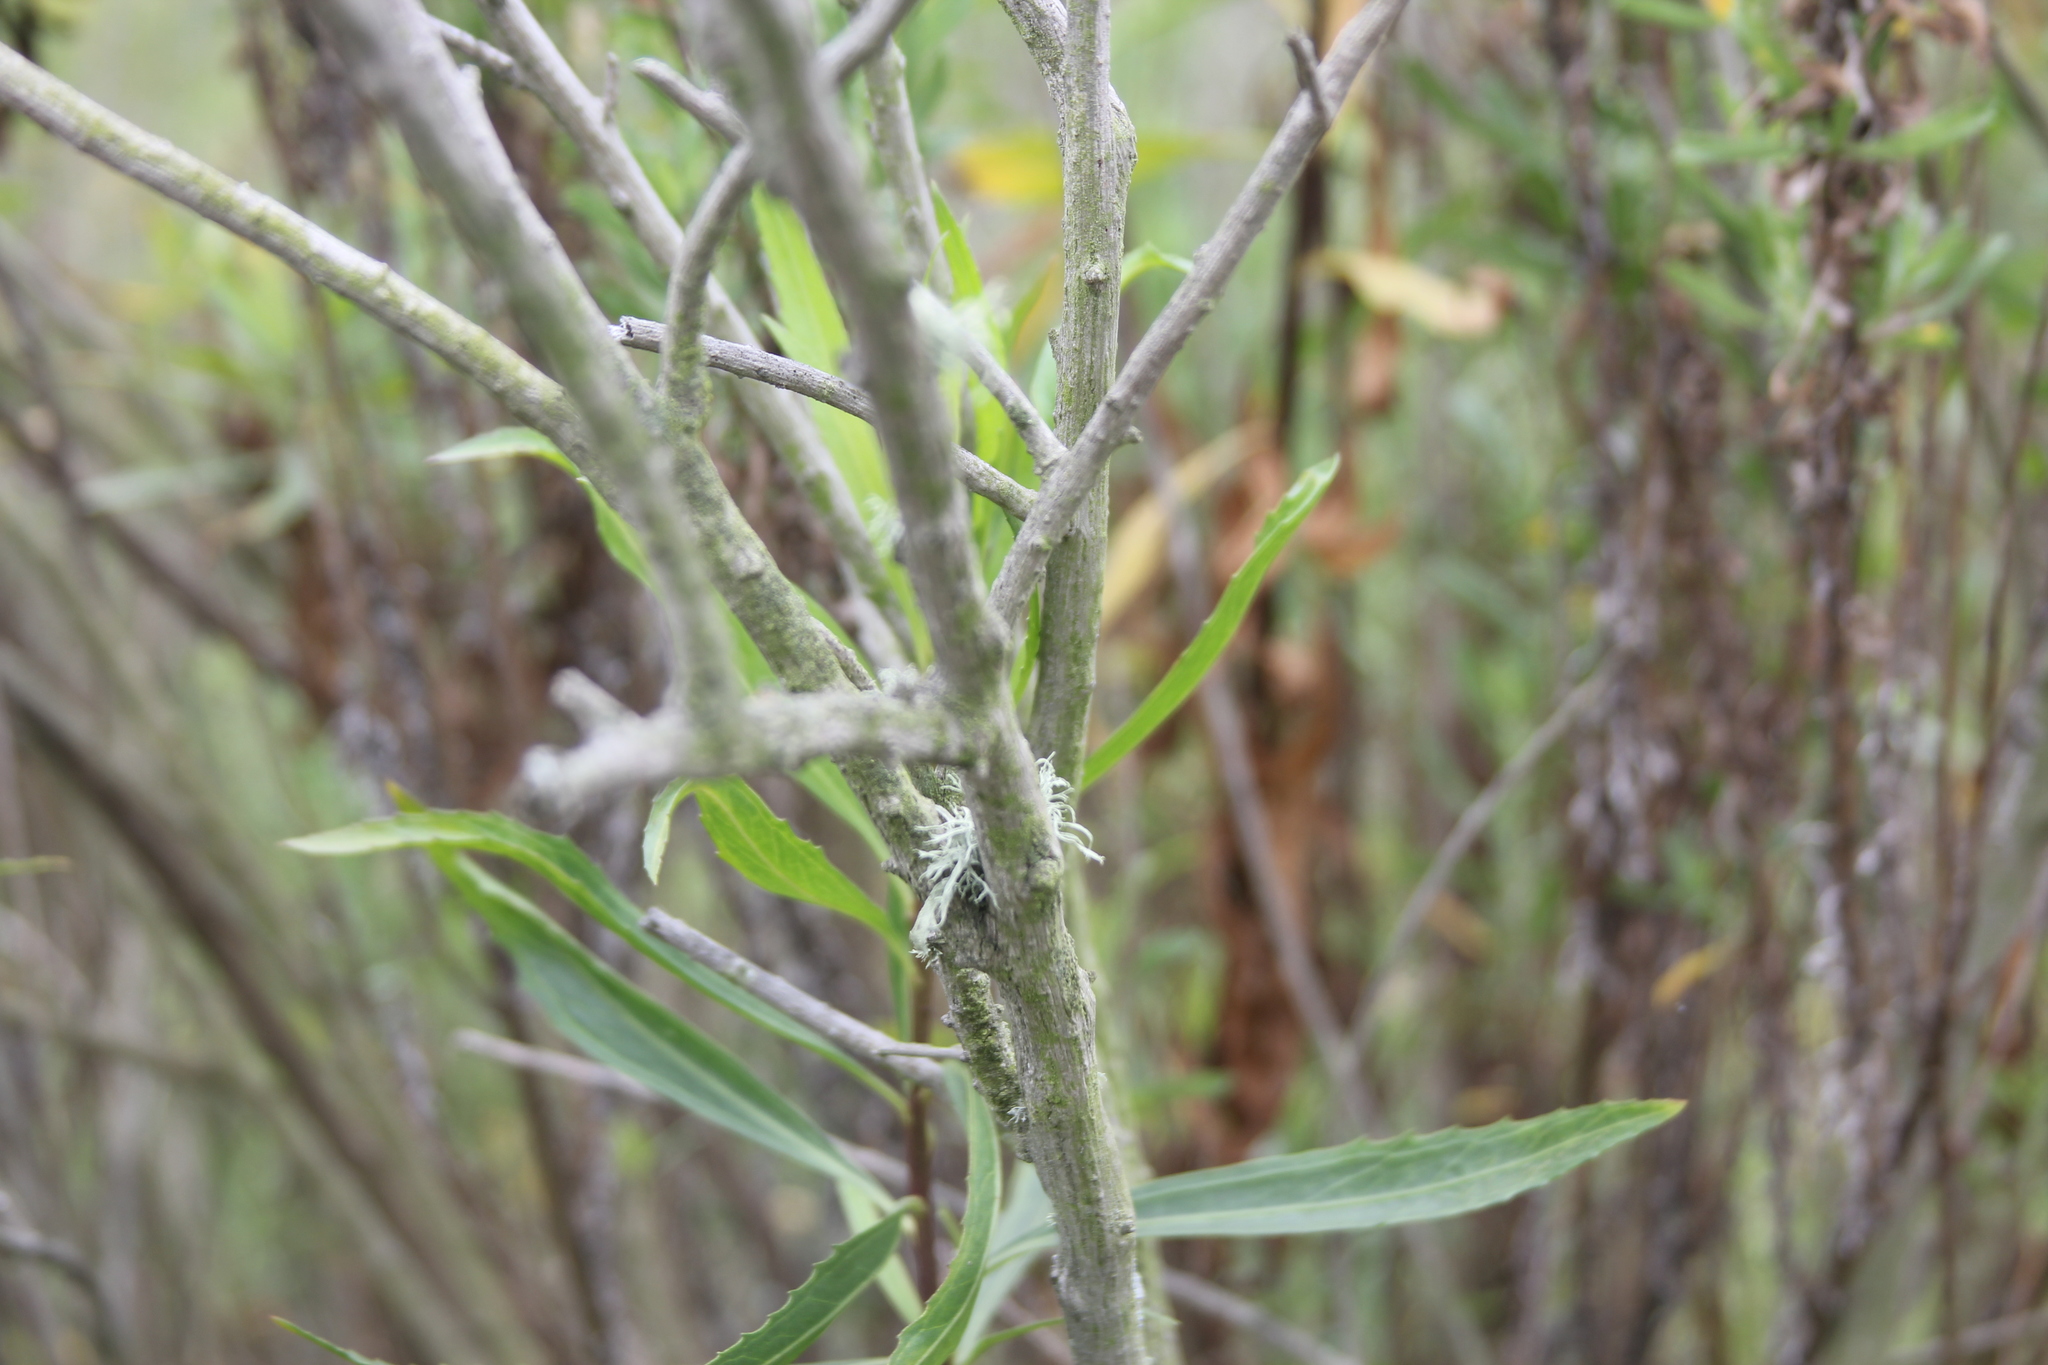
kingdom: Fungi
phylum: Ascomycota
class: Lecanoromycetes
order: Lecanorales
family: Ramalinaceae
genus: Ramalina
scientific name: Ramalina farinacea
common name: Farinose cartilage lichen
